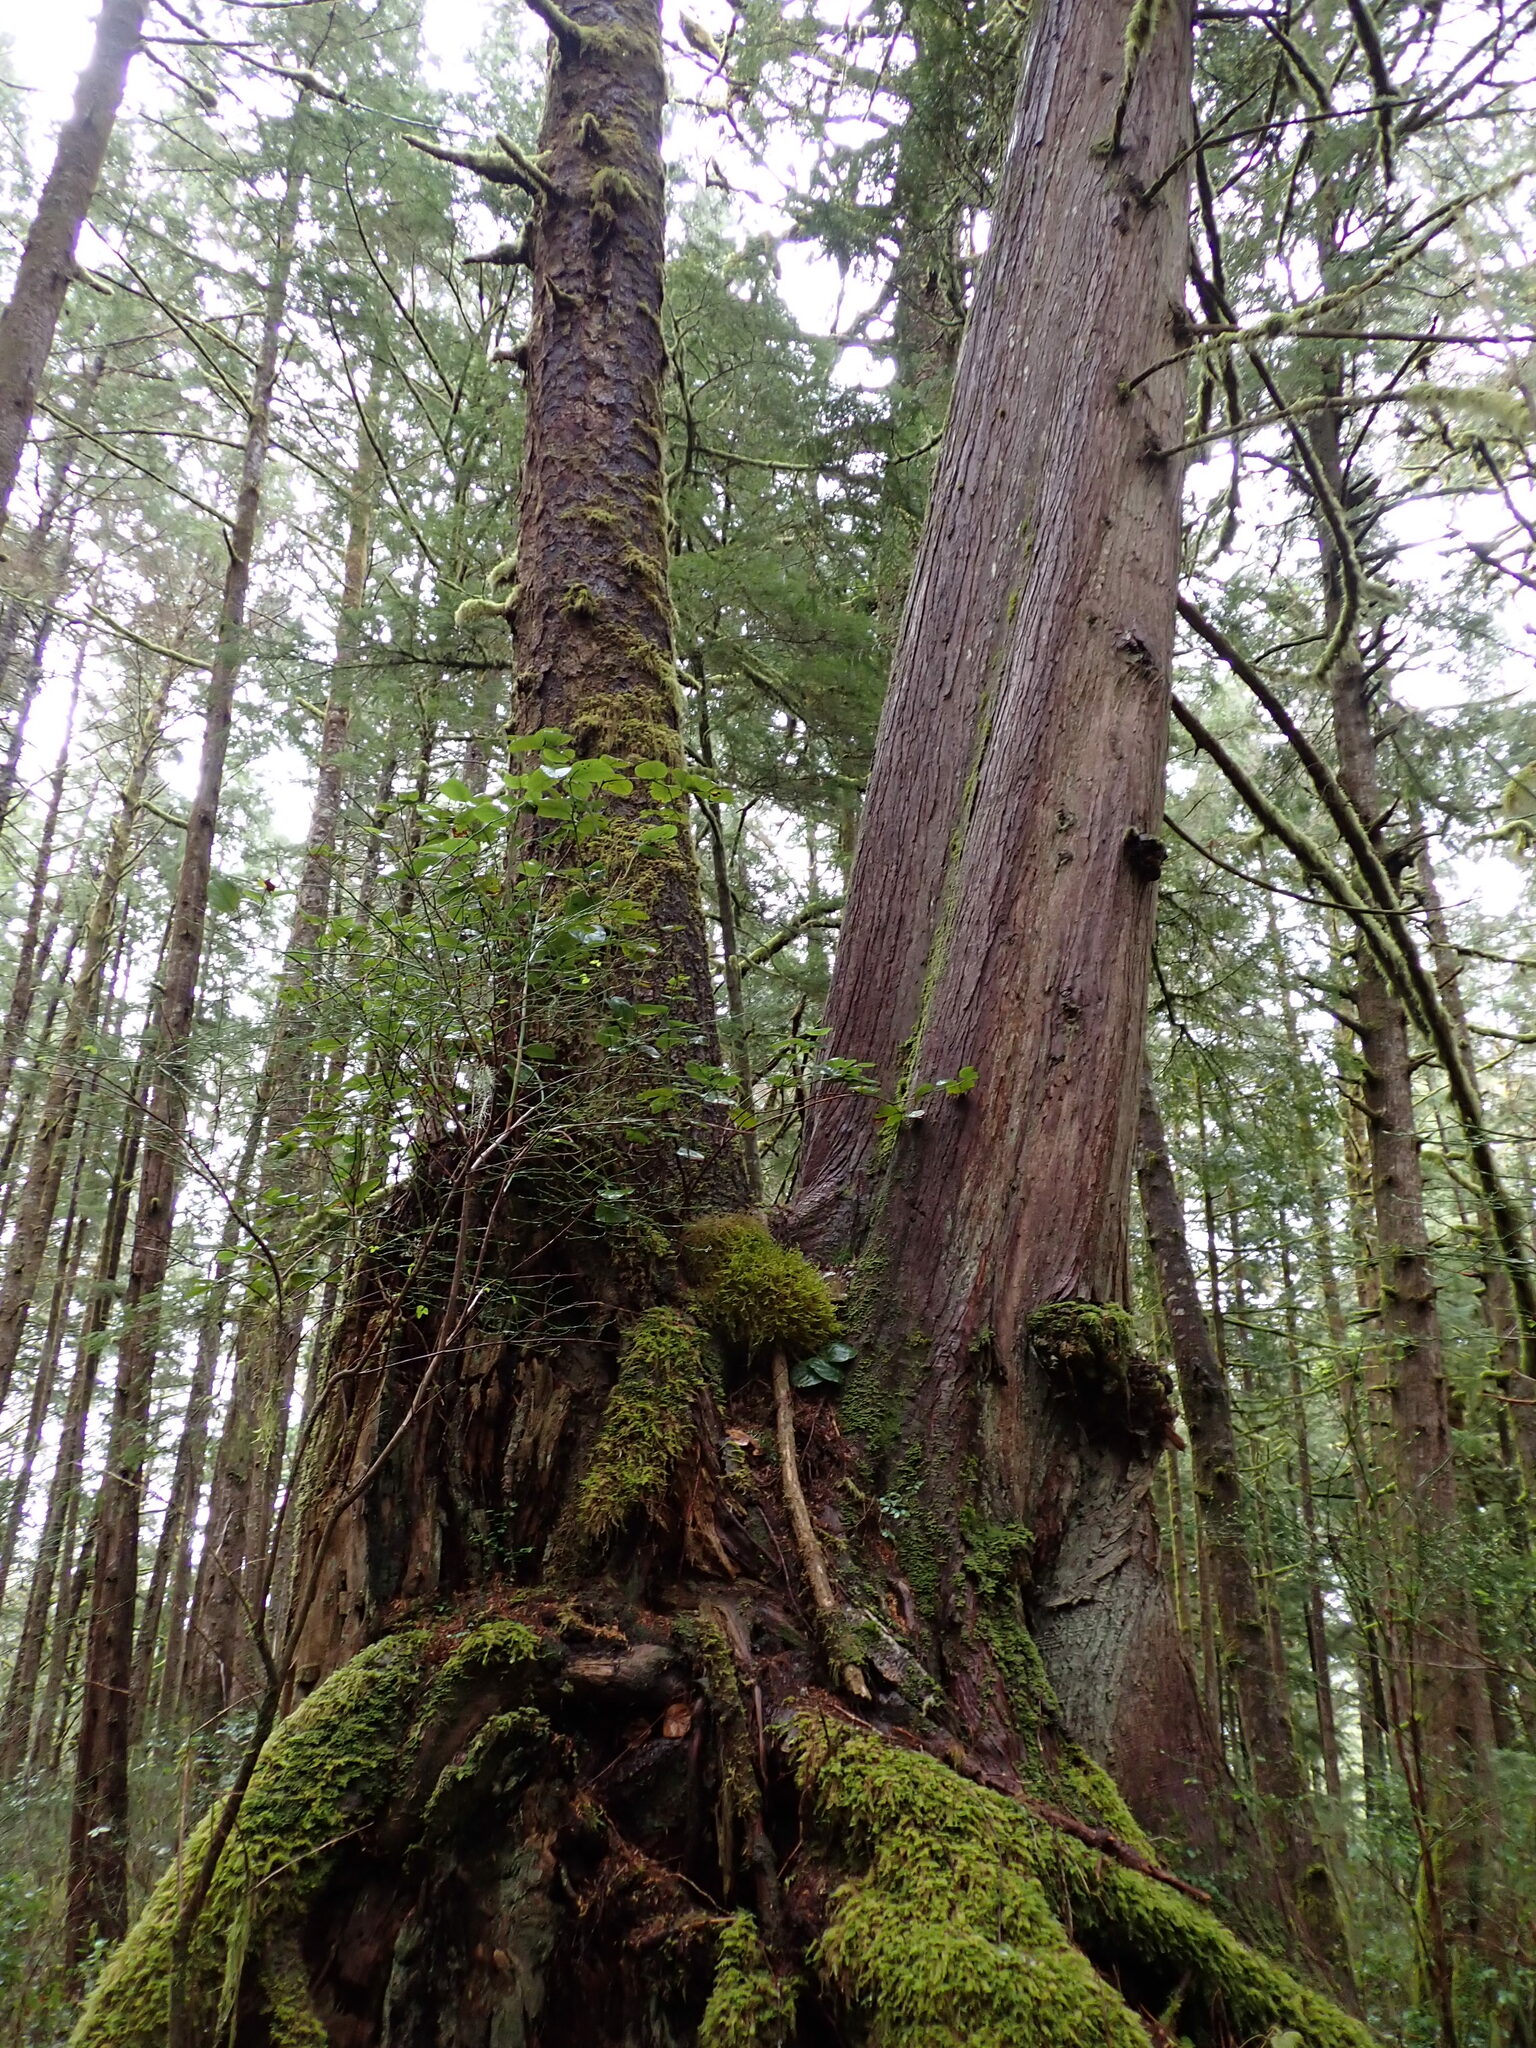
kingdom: Plantae
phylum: Tracheophyta
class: Pinopsida
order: Pinales
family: Cupressaceae
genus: Thuja
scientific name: Thuja plicata
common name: Western red-cedar
